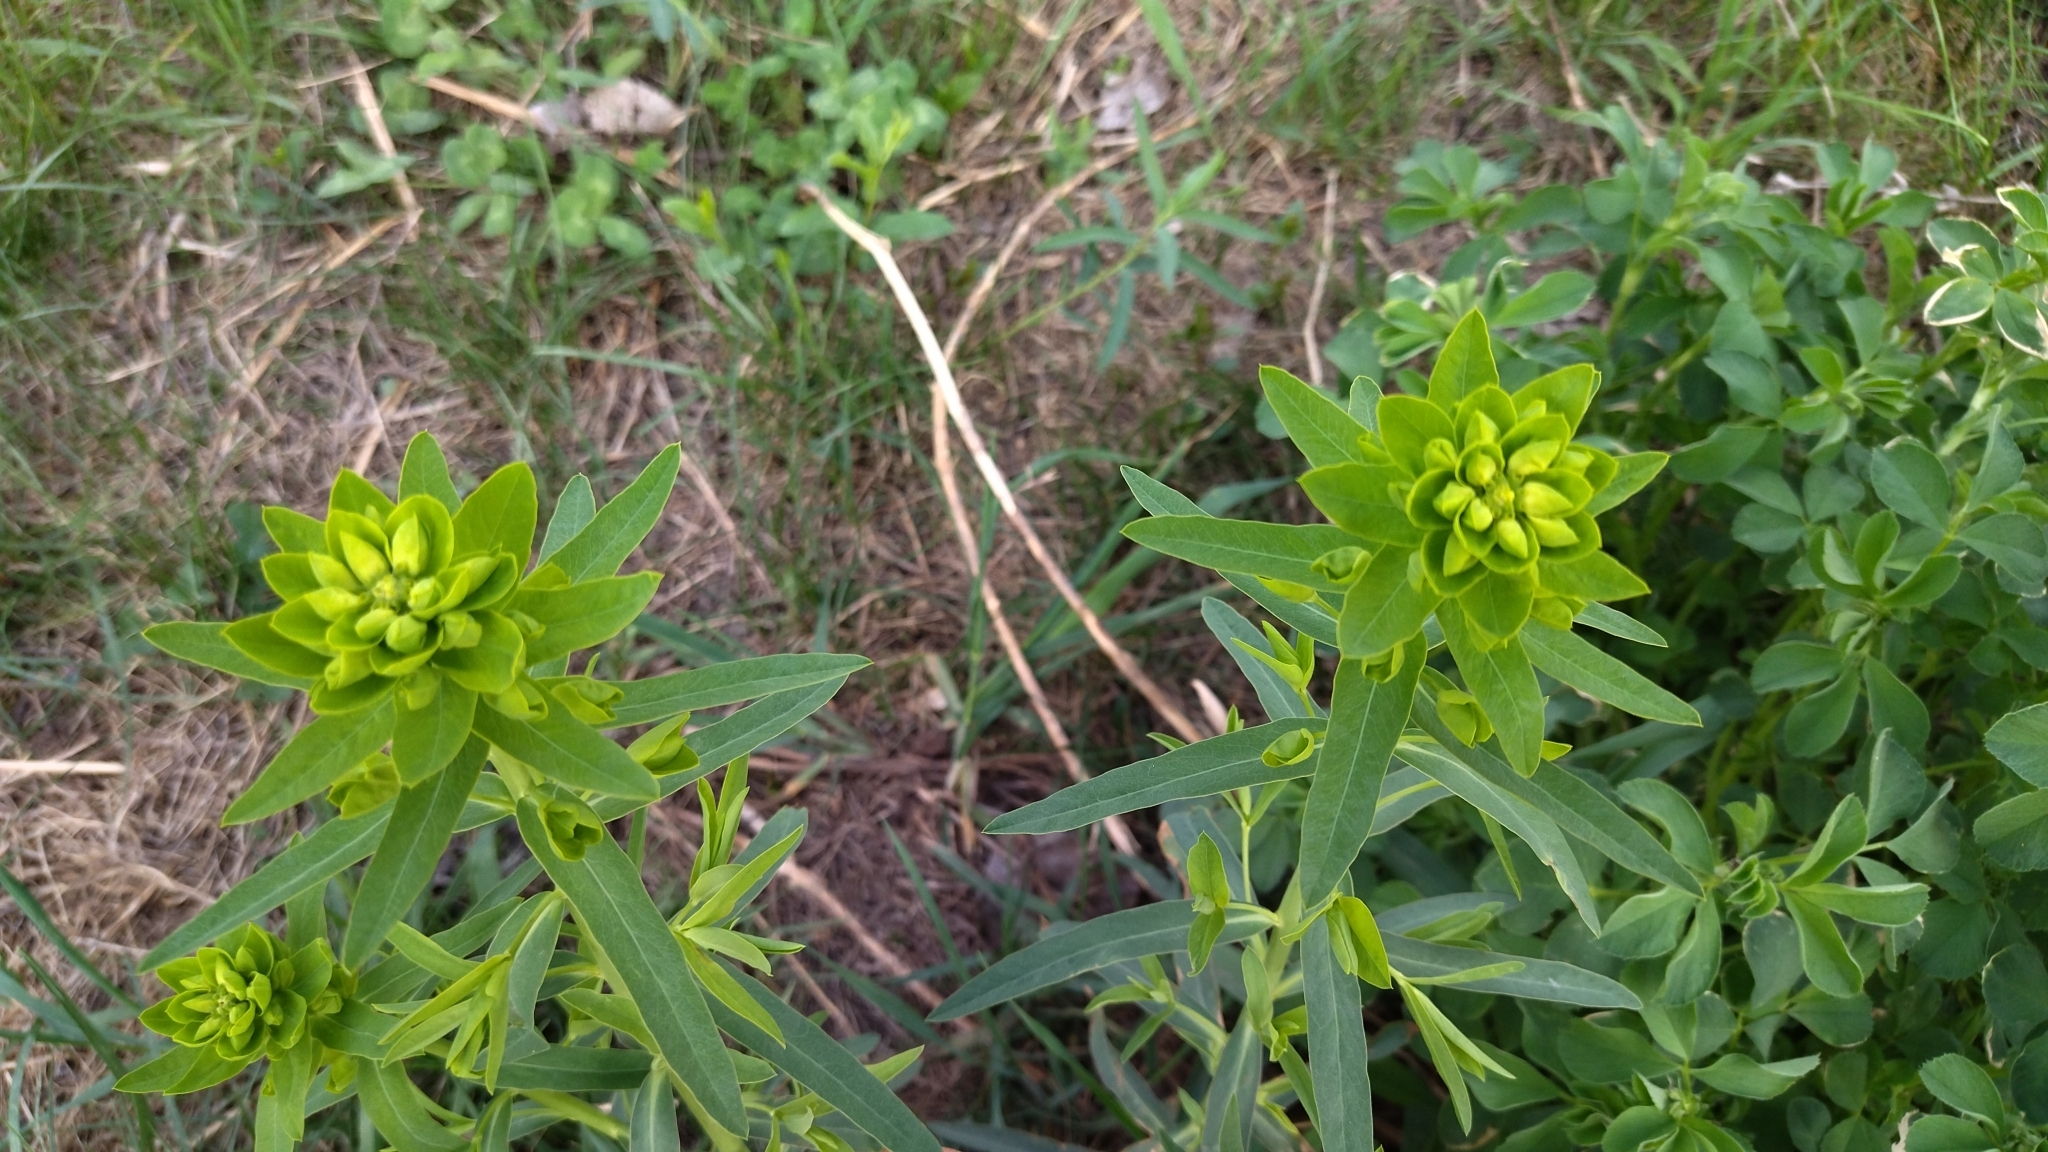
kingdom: Plantae
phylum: Tracheophyta
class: Magnoliopsida
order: Malpighiales
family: Euphorbiaceae
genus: Euphorbia
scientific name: Euphorbia virgata
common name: Leafy spurge
